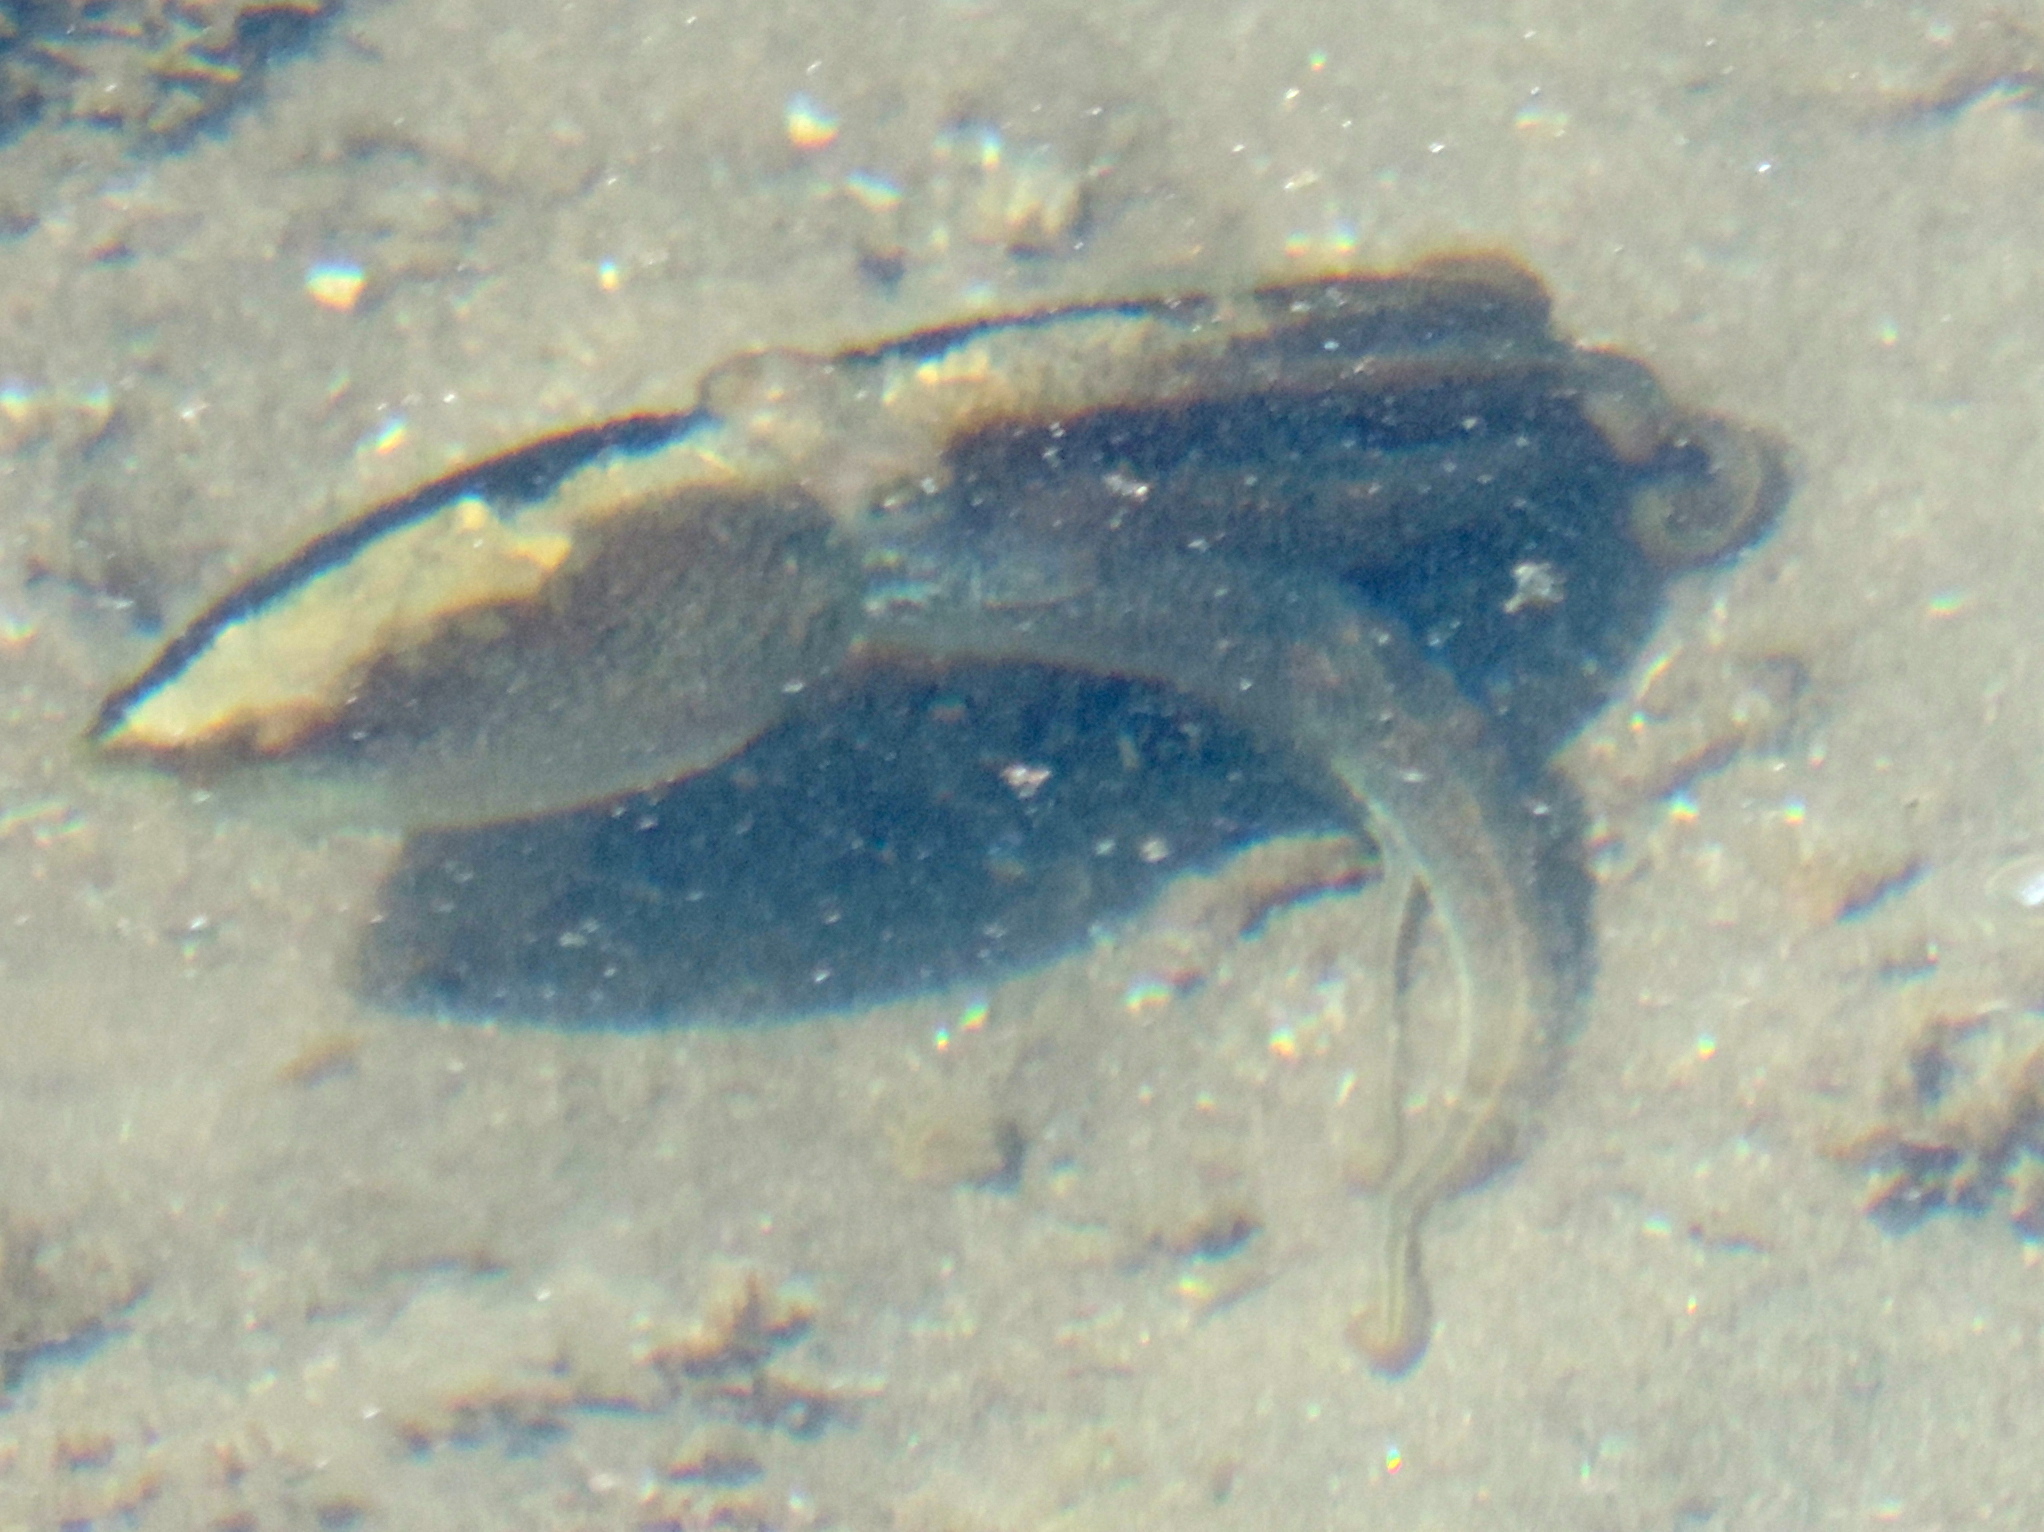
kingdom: Animalia
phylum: Mollusca
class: Cephalopoda
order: Octopoda
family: Octopodidae
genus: Octopus
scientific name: Octopus
